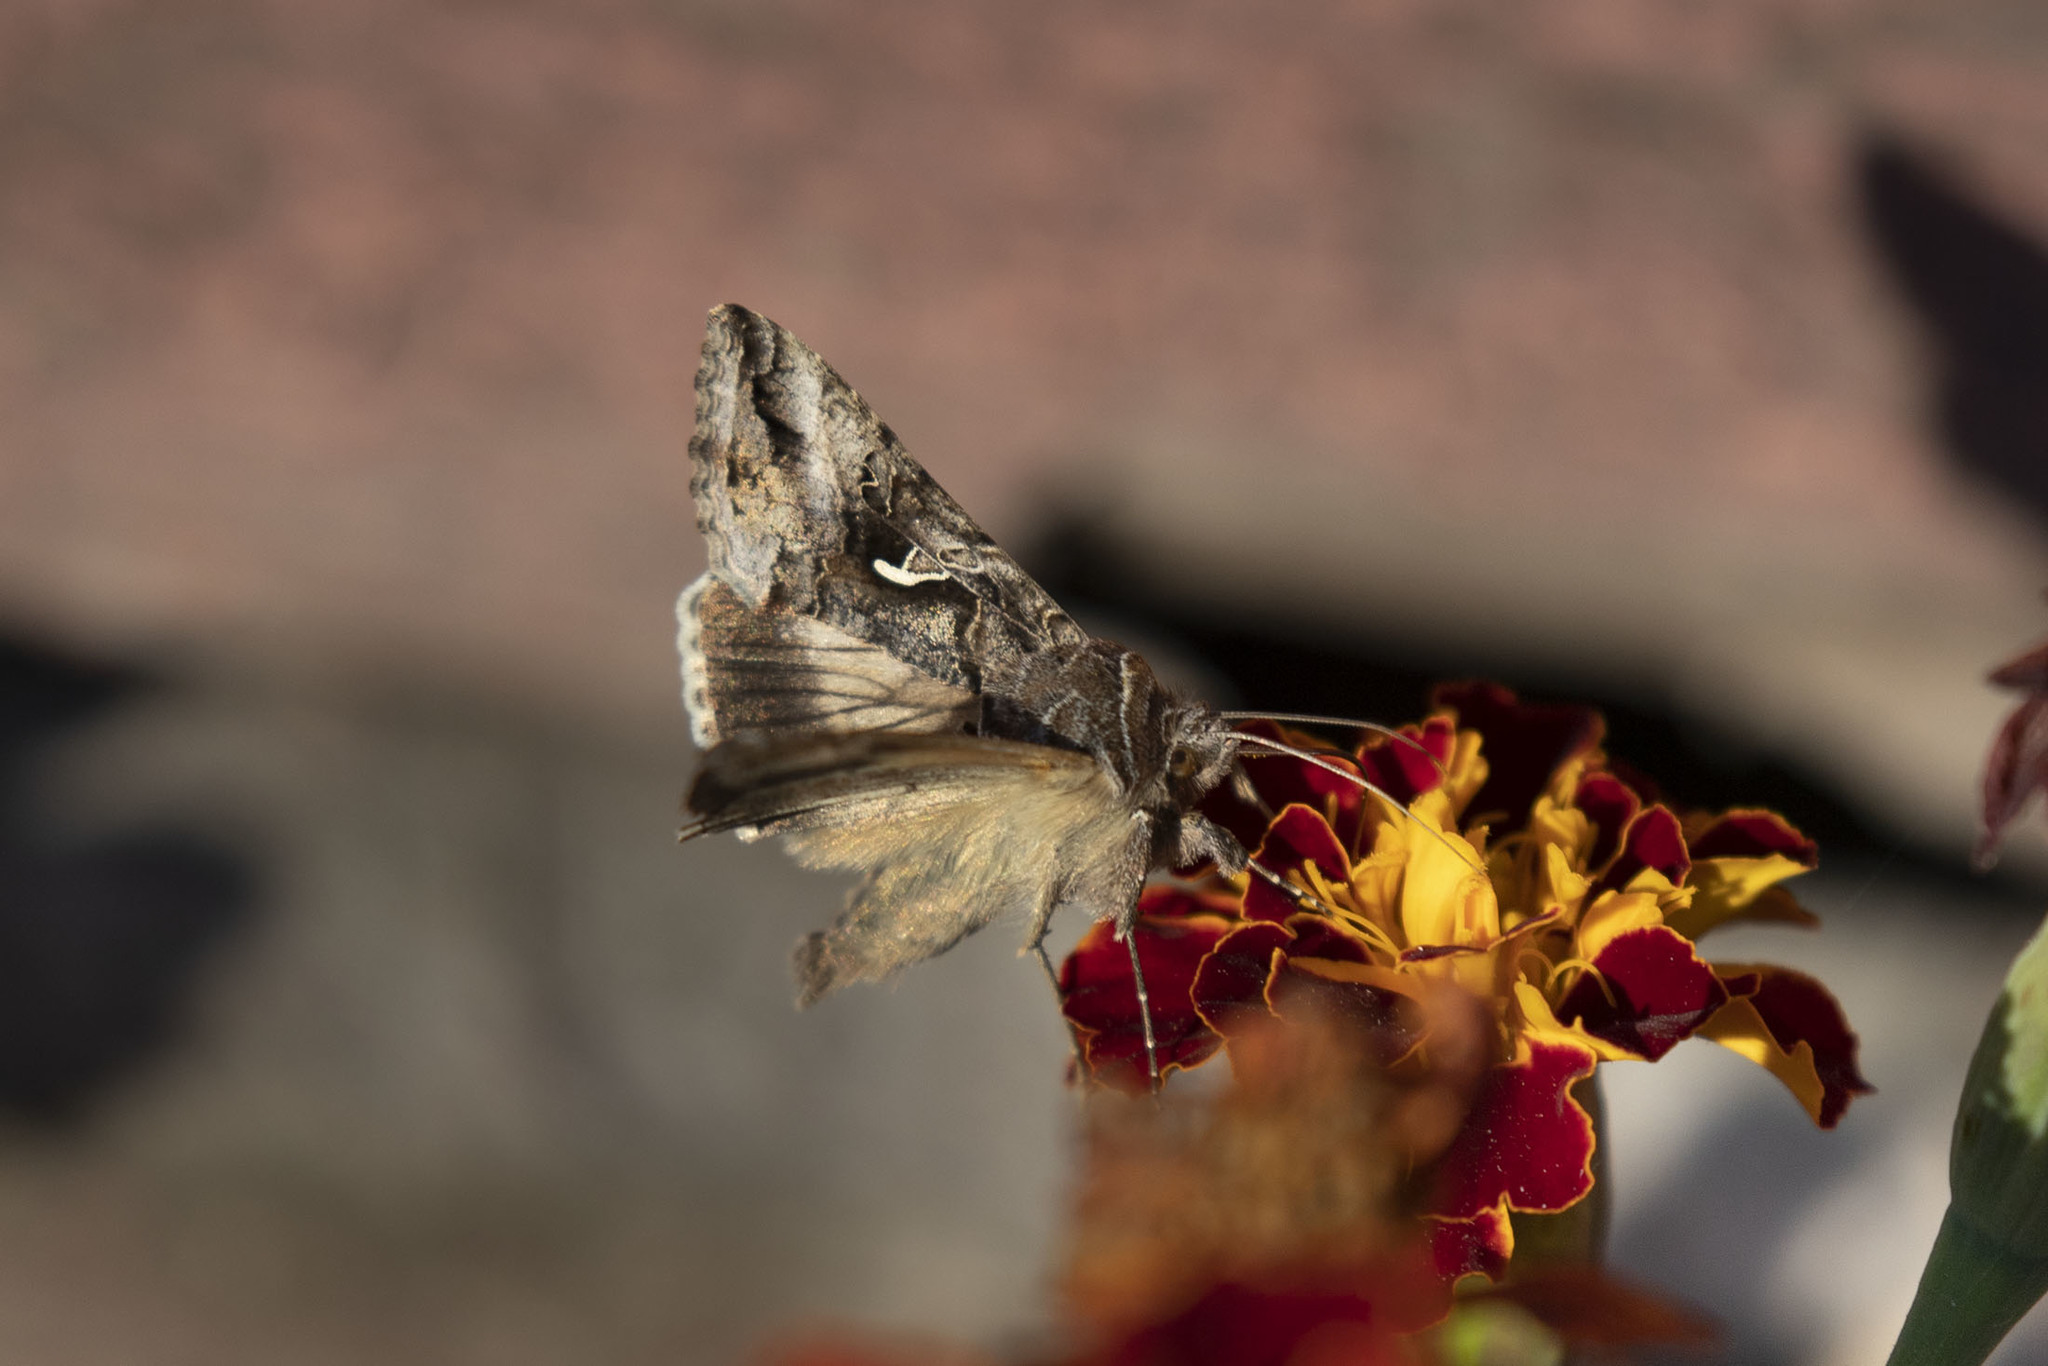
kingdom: Animalia
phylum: Arthropoda
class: Insecta
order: Lepidoptera
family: Noctuidae
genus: Autographa
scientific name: Autographa gamma
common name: Silver y
